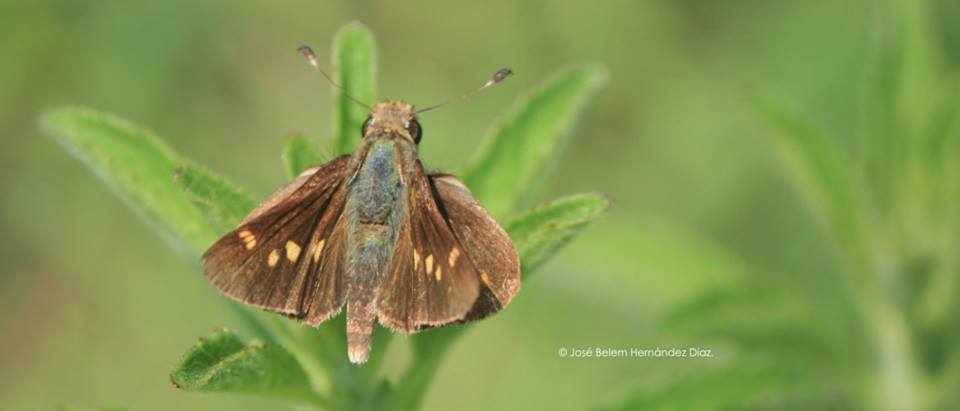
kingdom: Animalia
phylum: Arthropoda
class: Insecta
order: Lepidoptera
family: Hesperiidae
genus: Lon
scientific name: Lon melane
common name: Umber skipper
